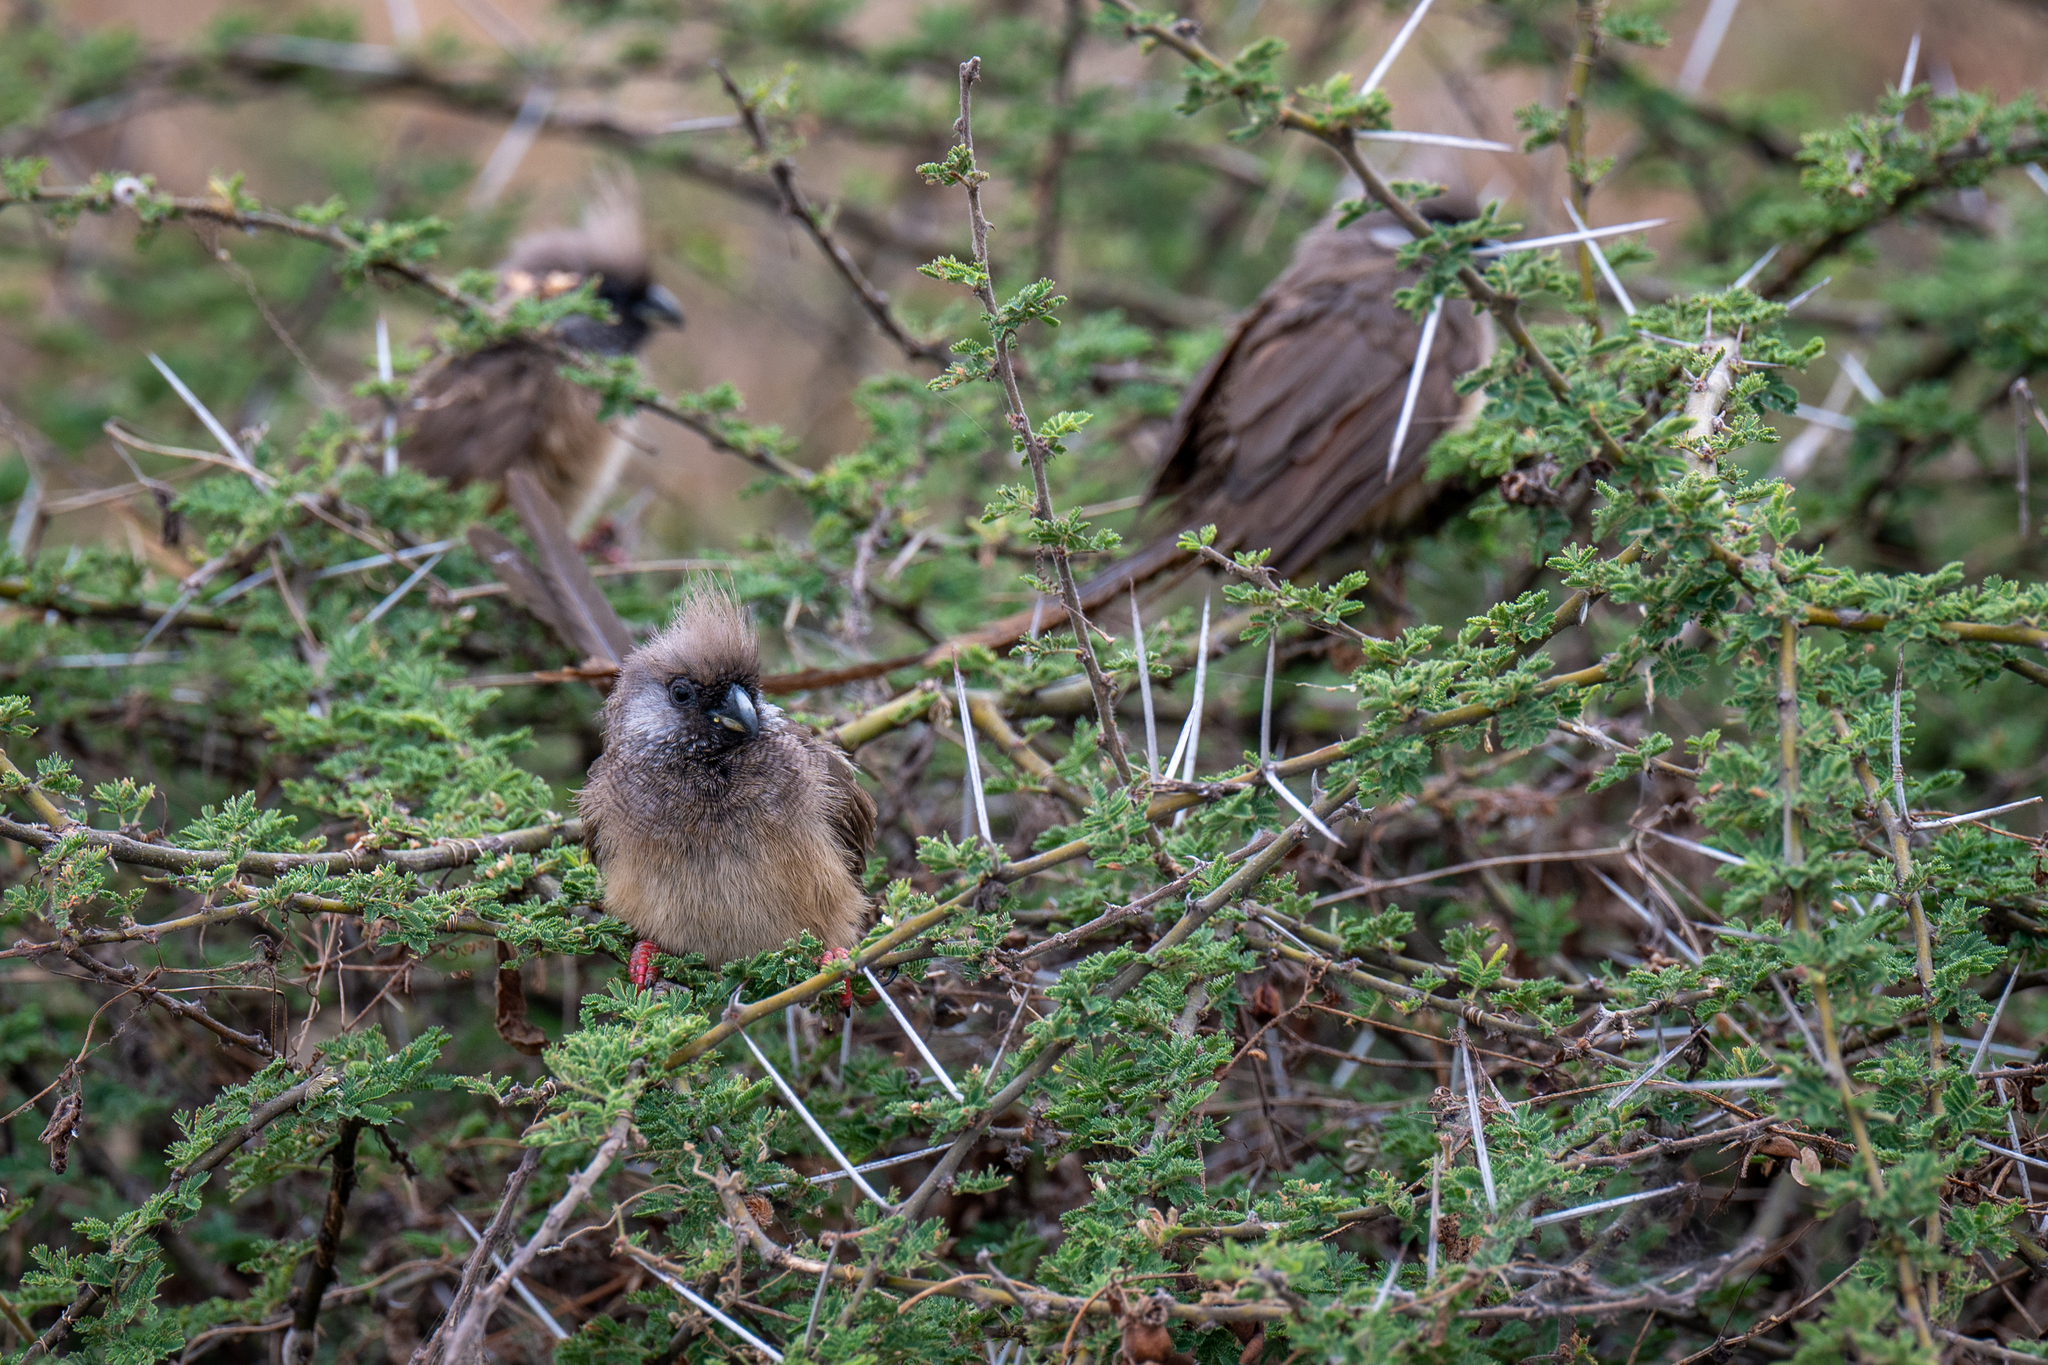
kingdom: Animalia
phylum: Chordata
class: Aves
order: Coliiformes
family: Coliidae
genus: Colius
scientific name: Colius striatus
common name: Speckled mousebird
